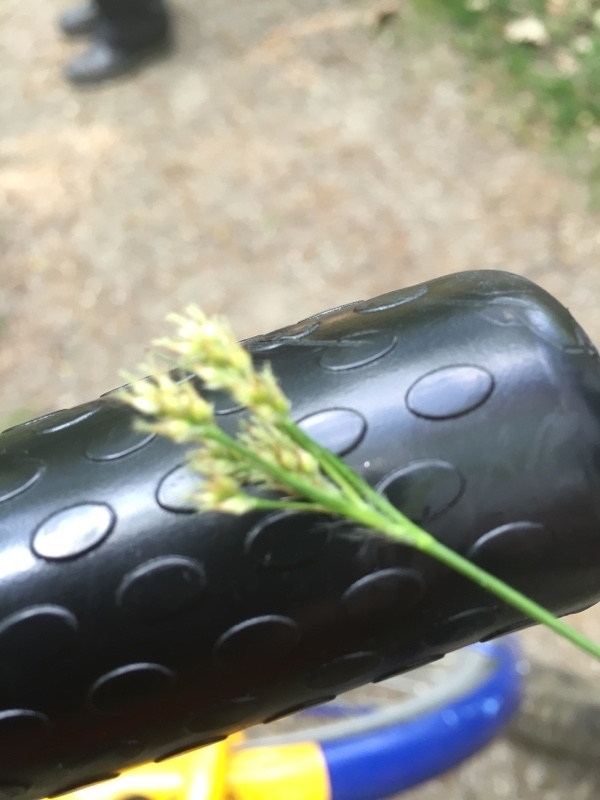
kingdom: Plantae
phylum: Tracheophyta
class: Liliopsida
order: Poales
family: Juncaceae
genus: Luzula
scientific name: Luzula multiflora
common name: Heath wood-rush
